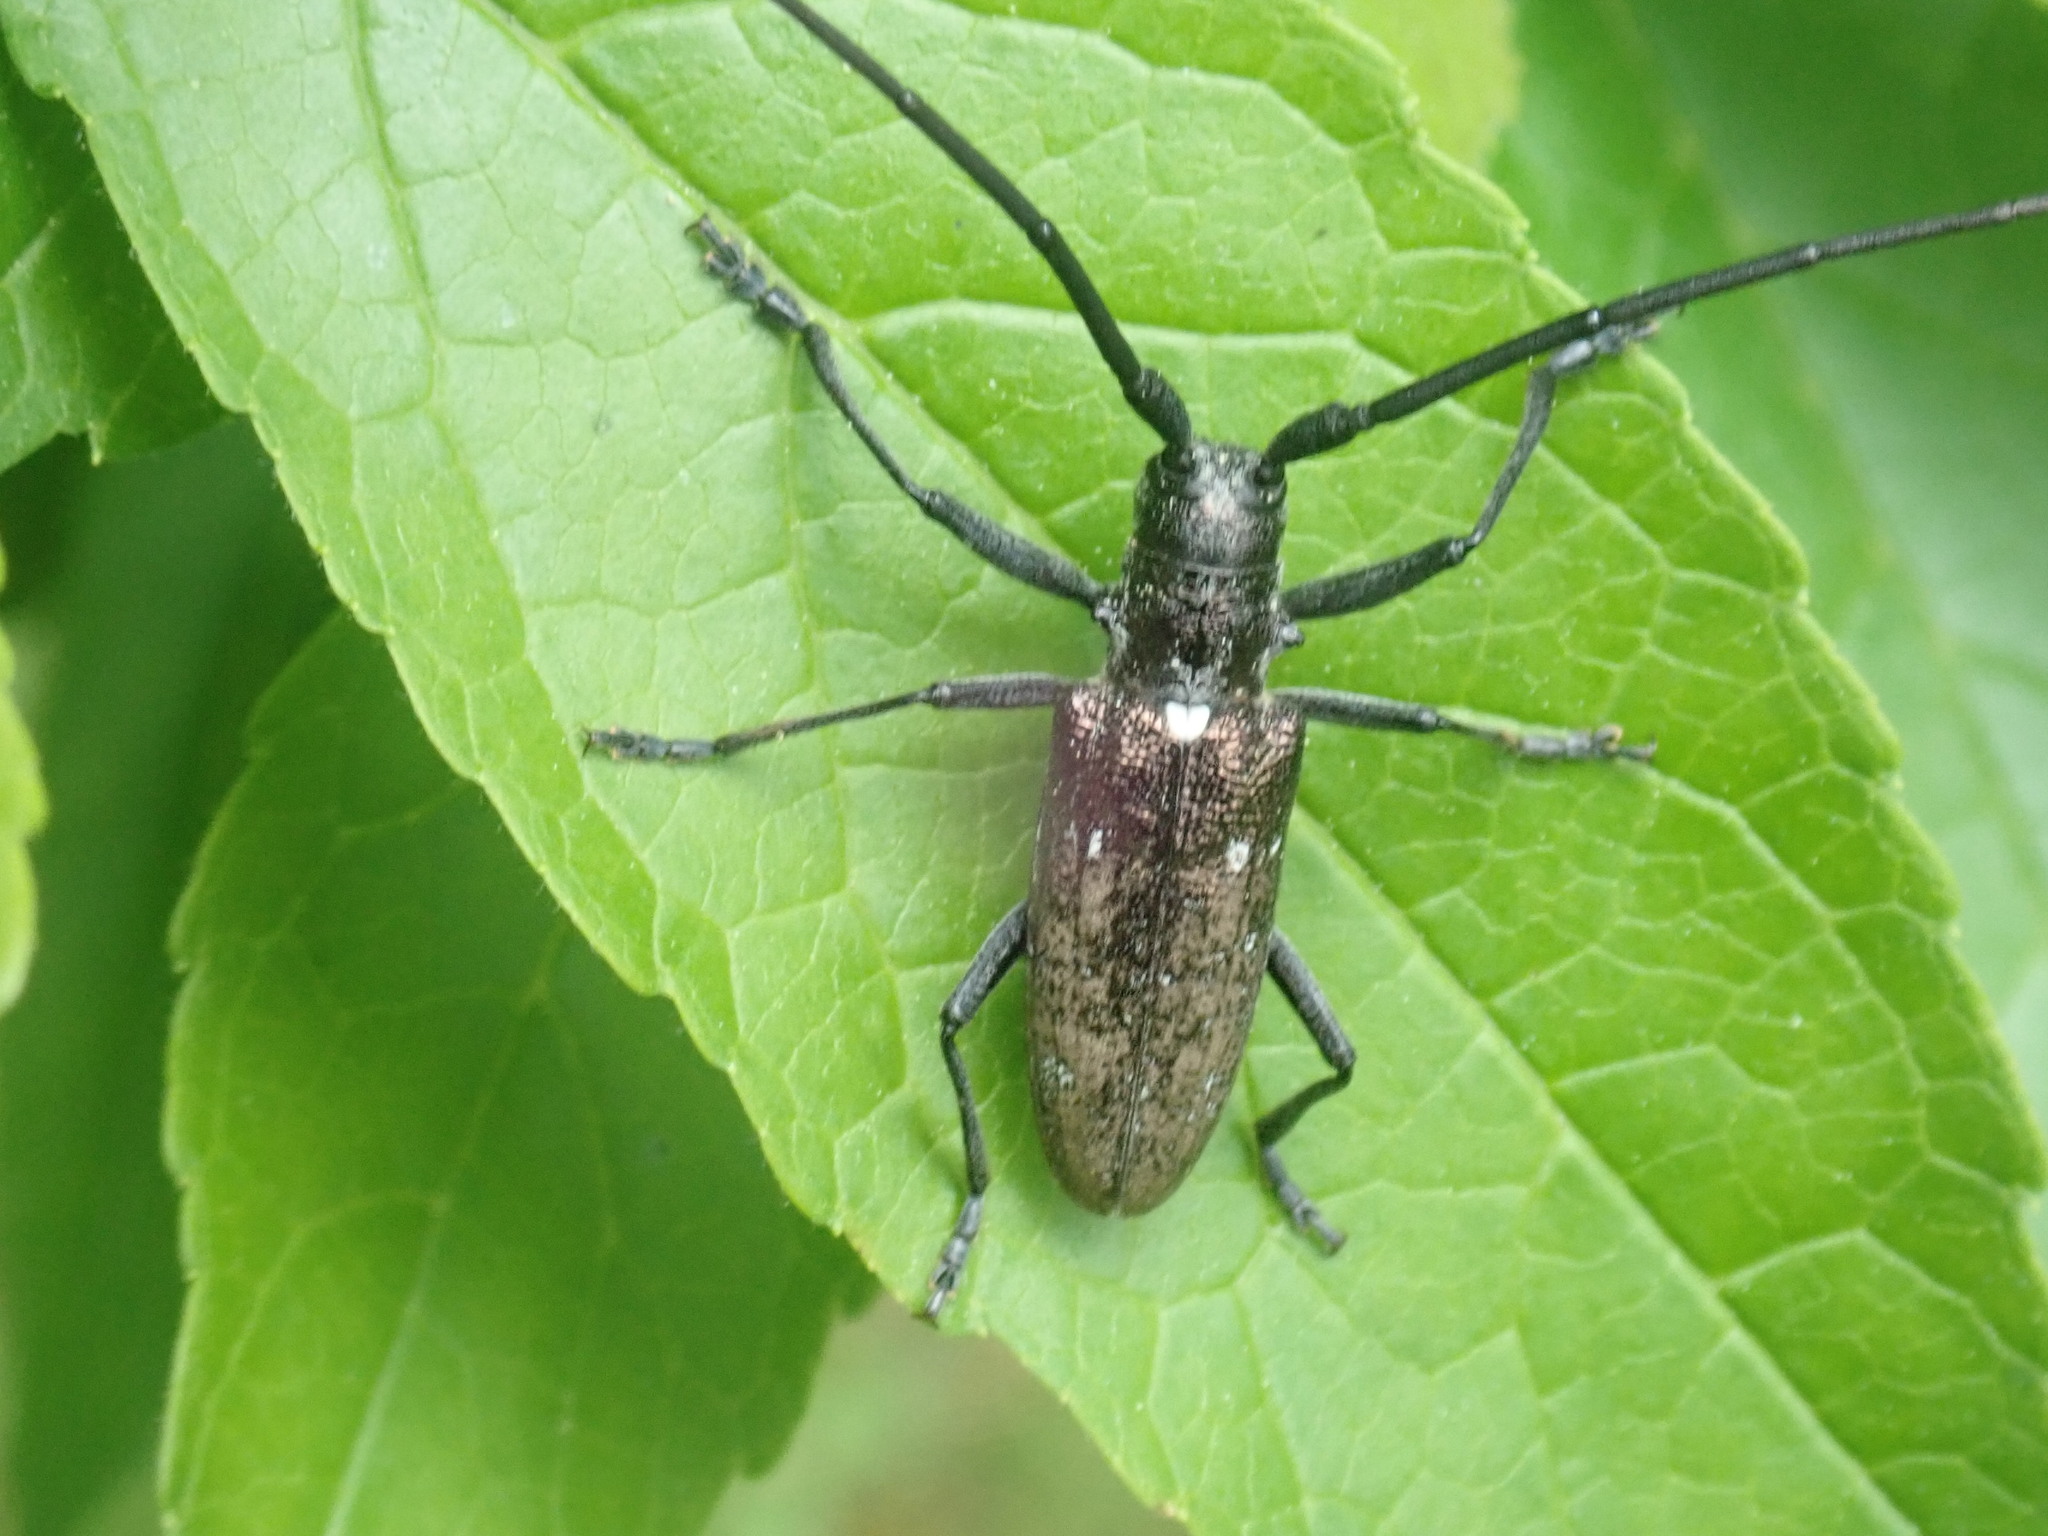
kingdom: Animalia
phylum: Arthropoda
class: Insecta
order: Coleoptera
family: Cerambycidae
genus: Monochamus
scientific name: Monochamus scutellatus
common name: White-spotted sawyer beetle
